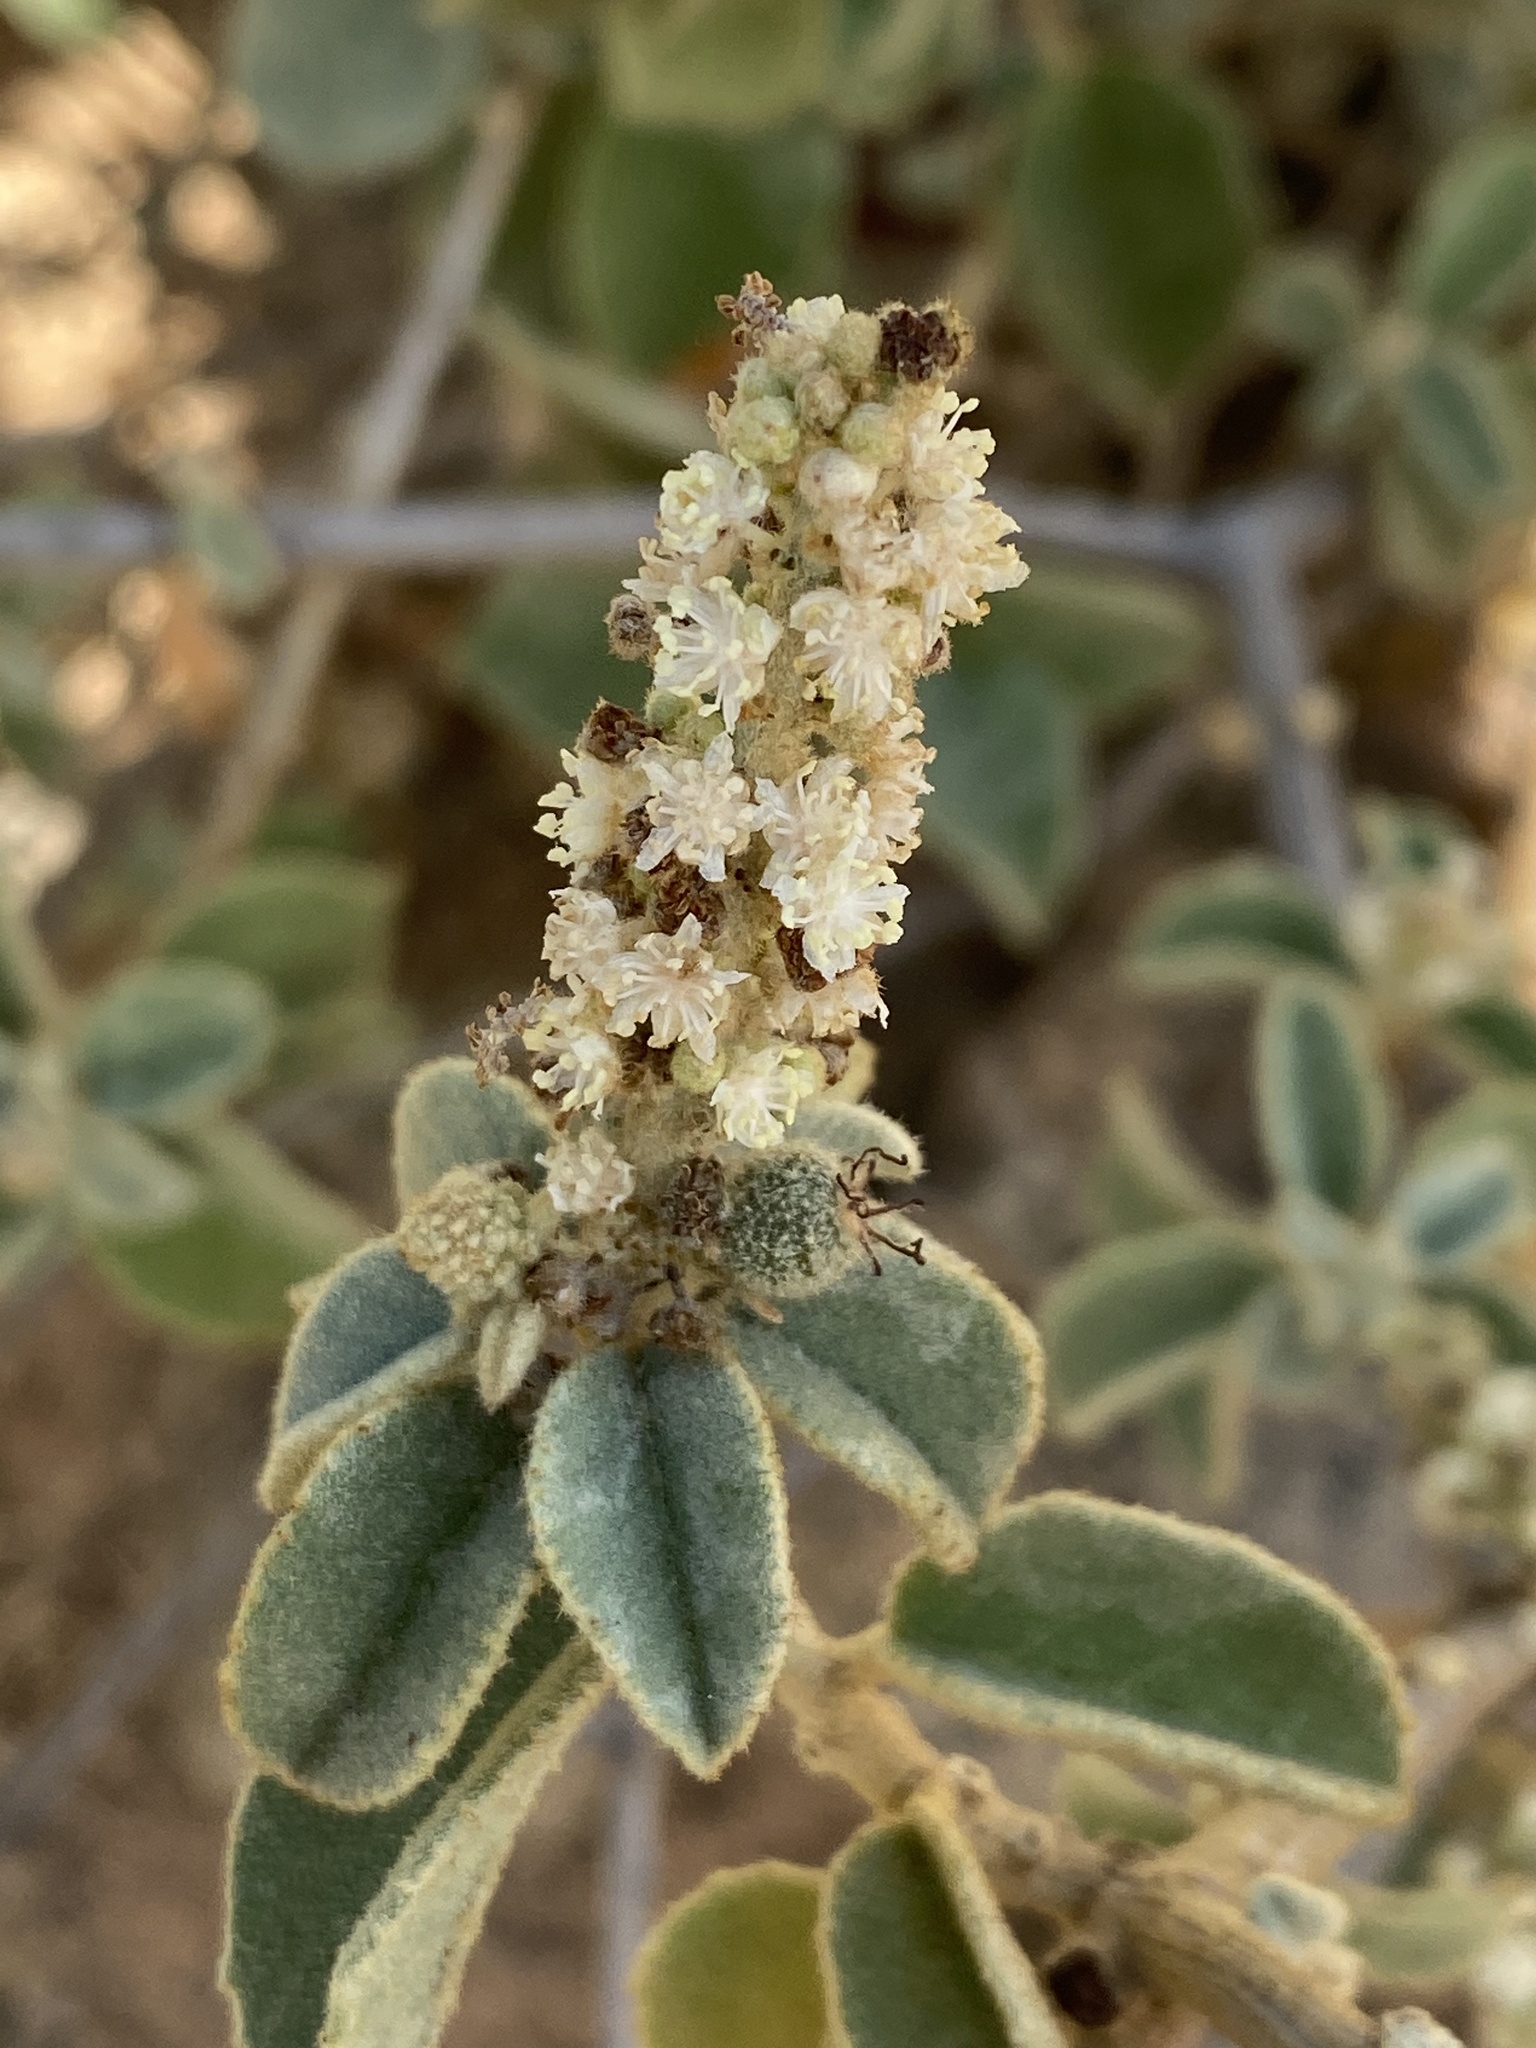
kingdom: Plantae
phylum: Tracheophyta
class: Magnoliopsida
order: Malpighiales
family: Euphorbiaceae
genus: Croton
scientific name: Croton conduplicatus
